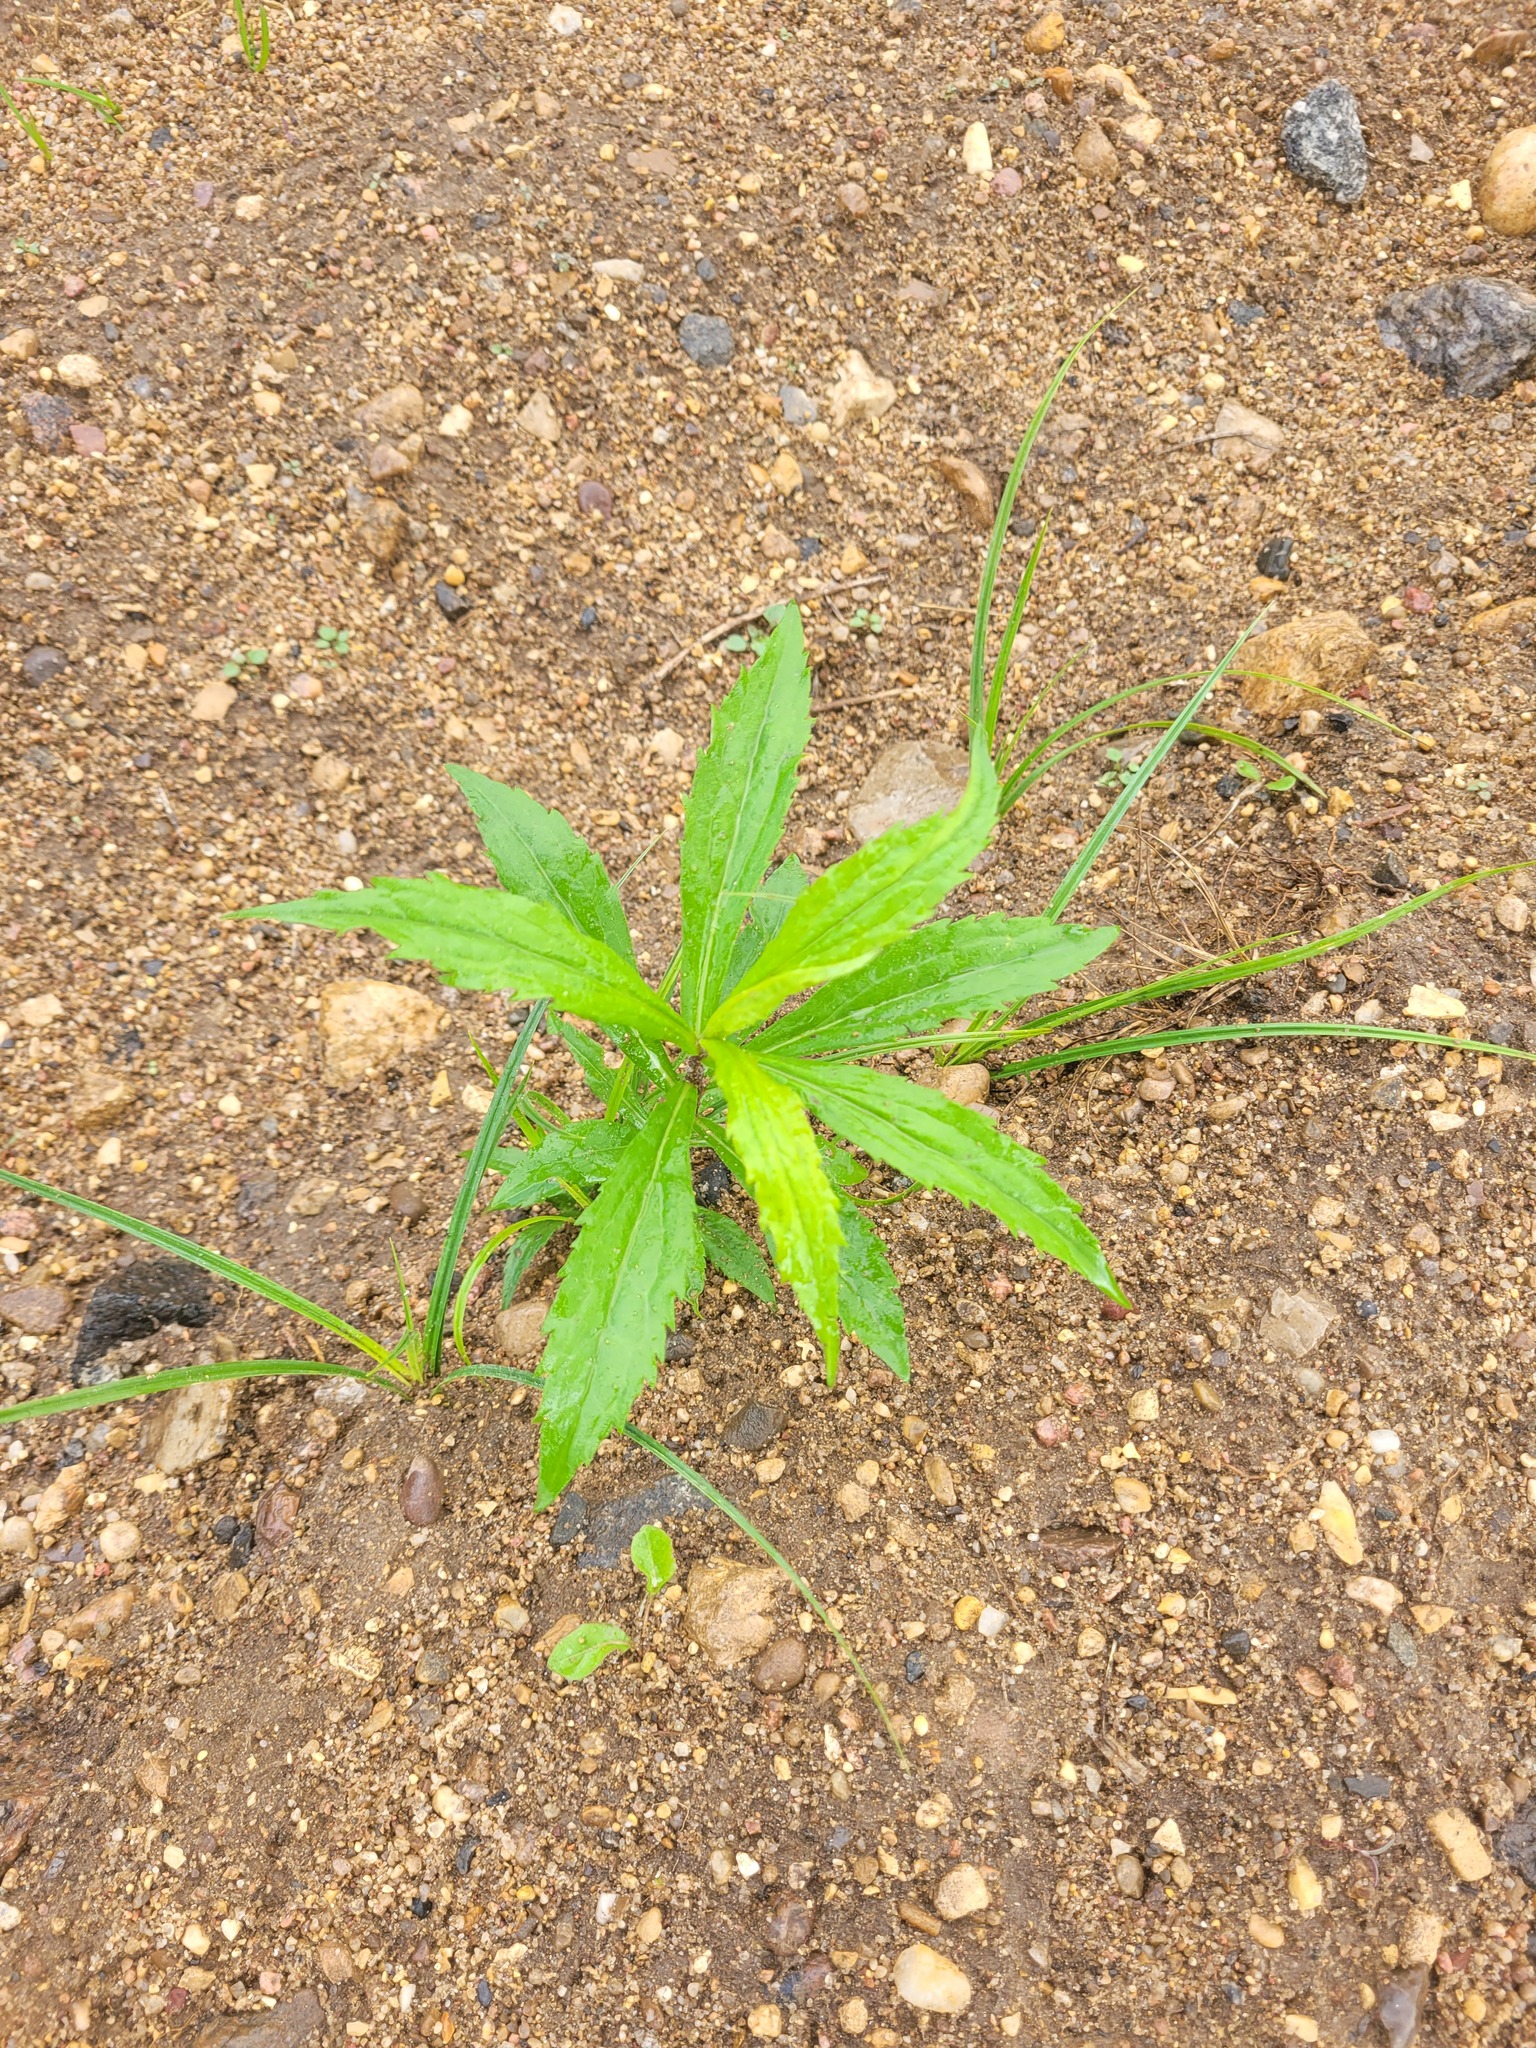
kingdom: Plantae
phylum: Tracheophyta
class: Magnoliopsida
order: Asterales
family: Asteraceae
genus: Solidago
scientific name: Solidago canadensis
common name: Canada goldenrod
